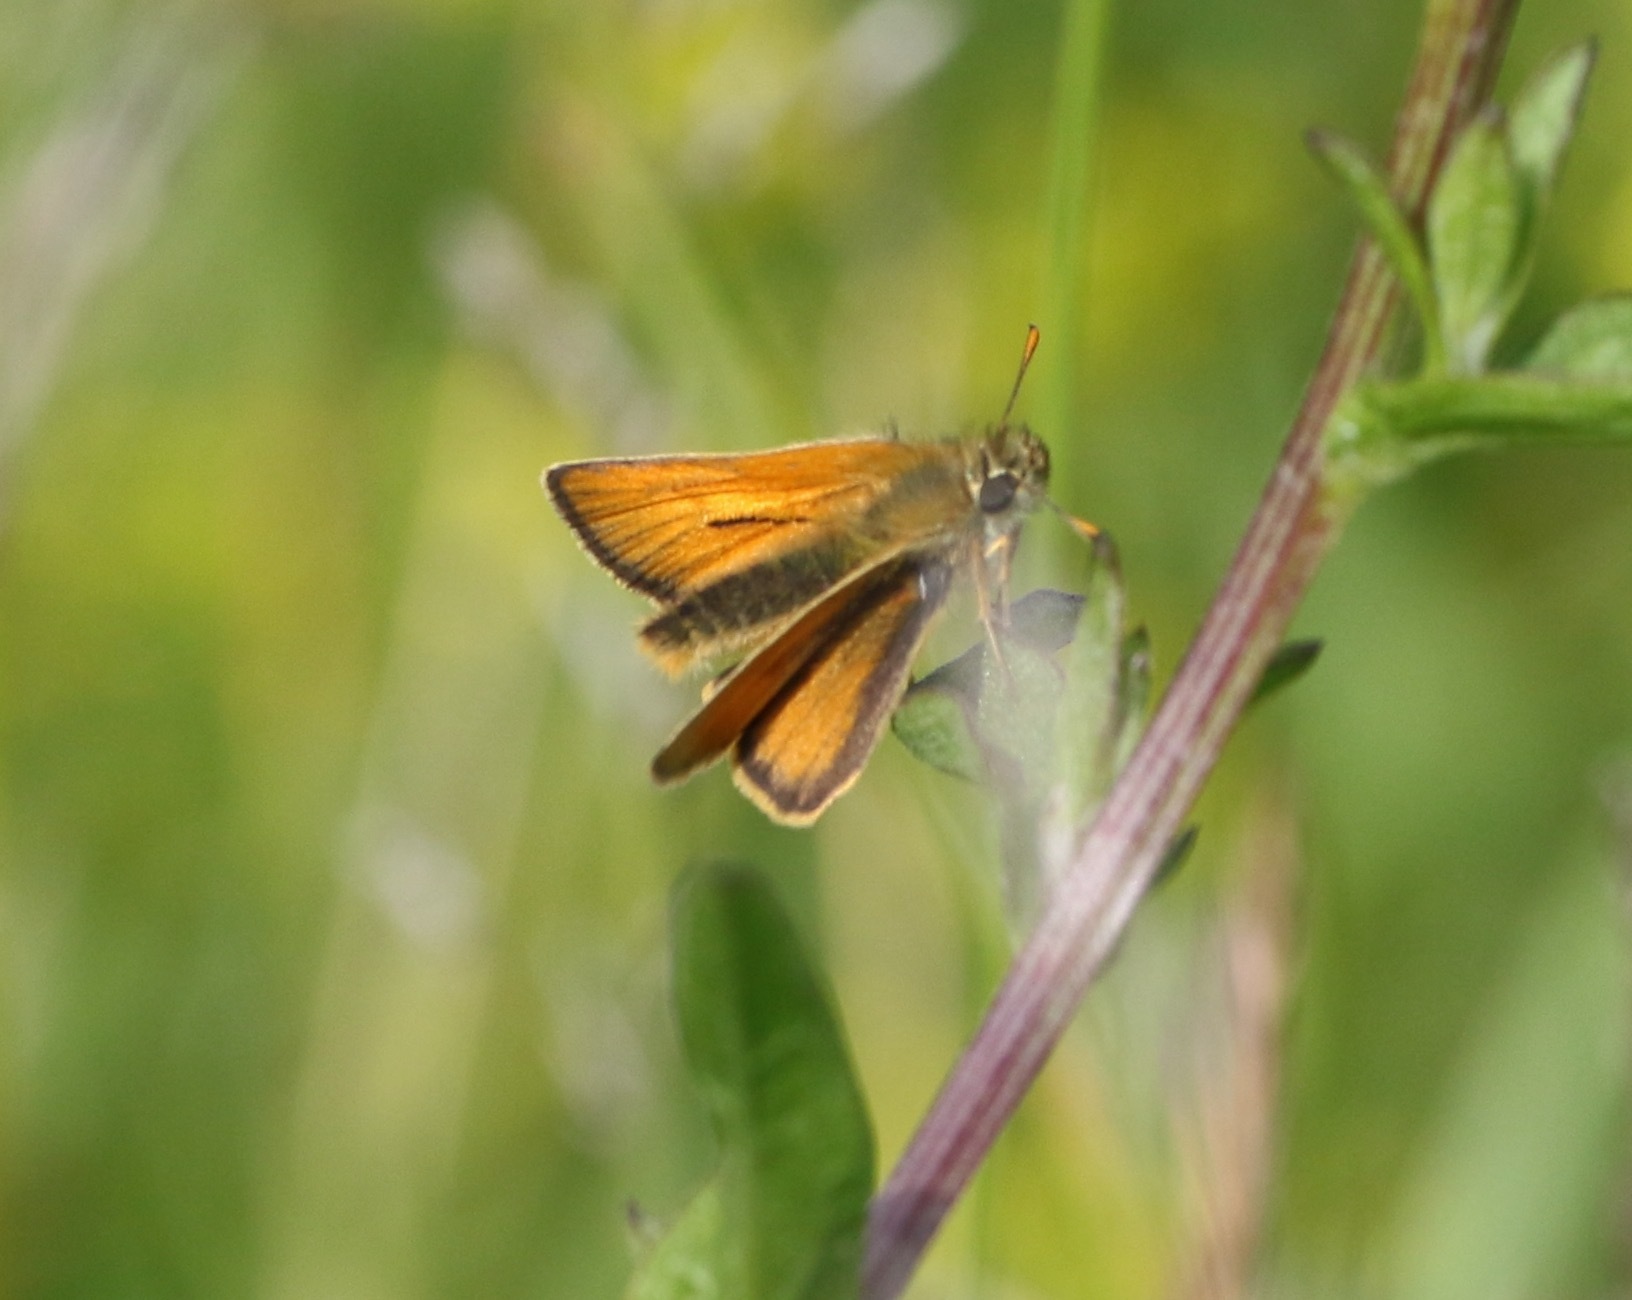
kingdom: Animalia
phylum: Arthropoda
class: Insecta
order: Lepidoptera
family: Hesperiidae
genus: Thymelicus
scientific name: Thymelicus sylvestris
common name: Small skipper
